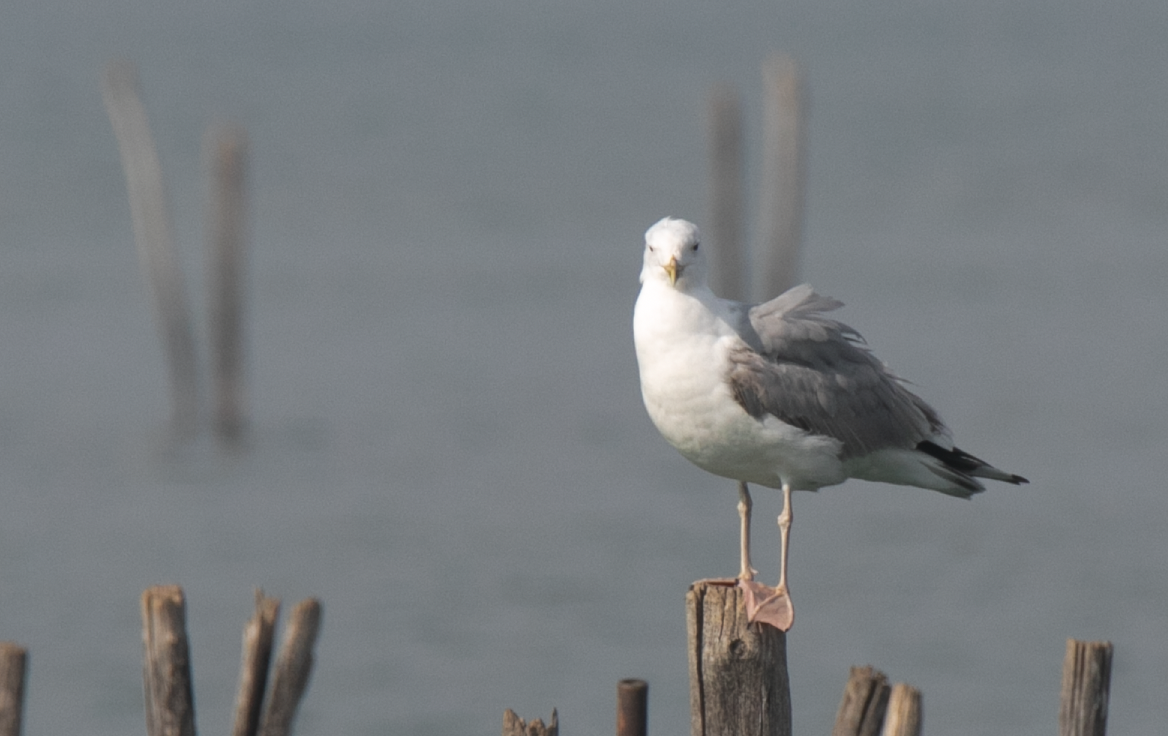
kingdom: Animalia
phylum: Chordata
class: Aves
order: Charadriiformes
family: Laridae
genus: Larus
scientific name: Larus cachinnans
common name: Caspian gull
